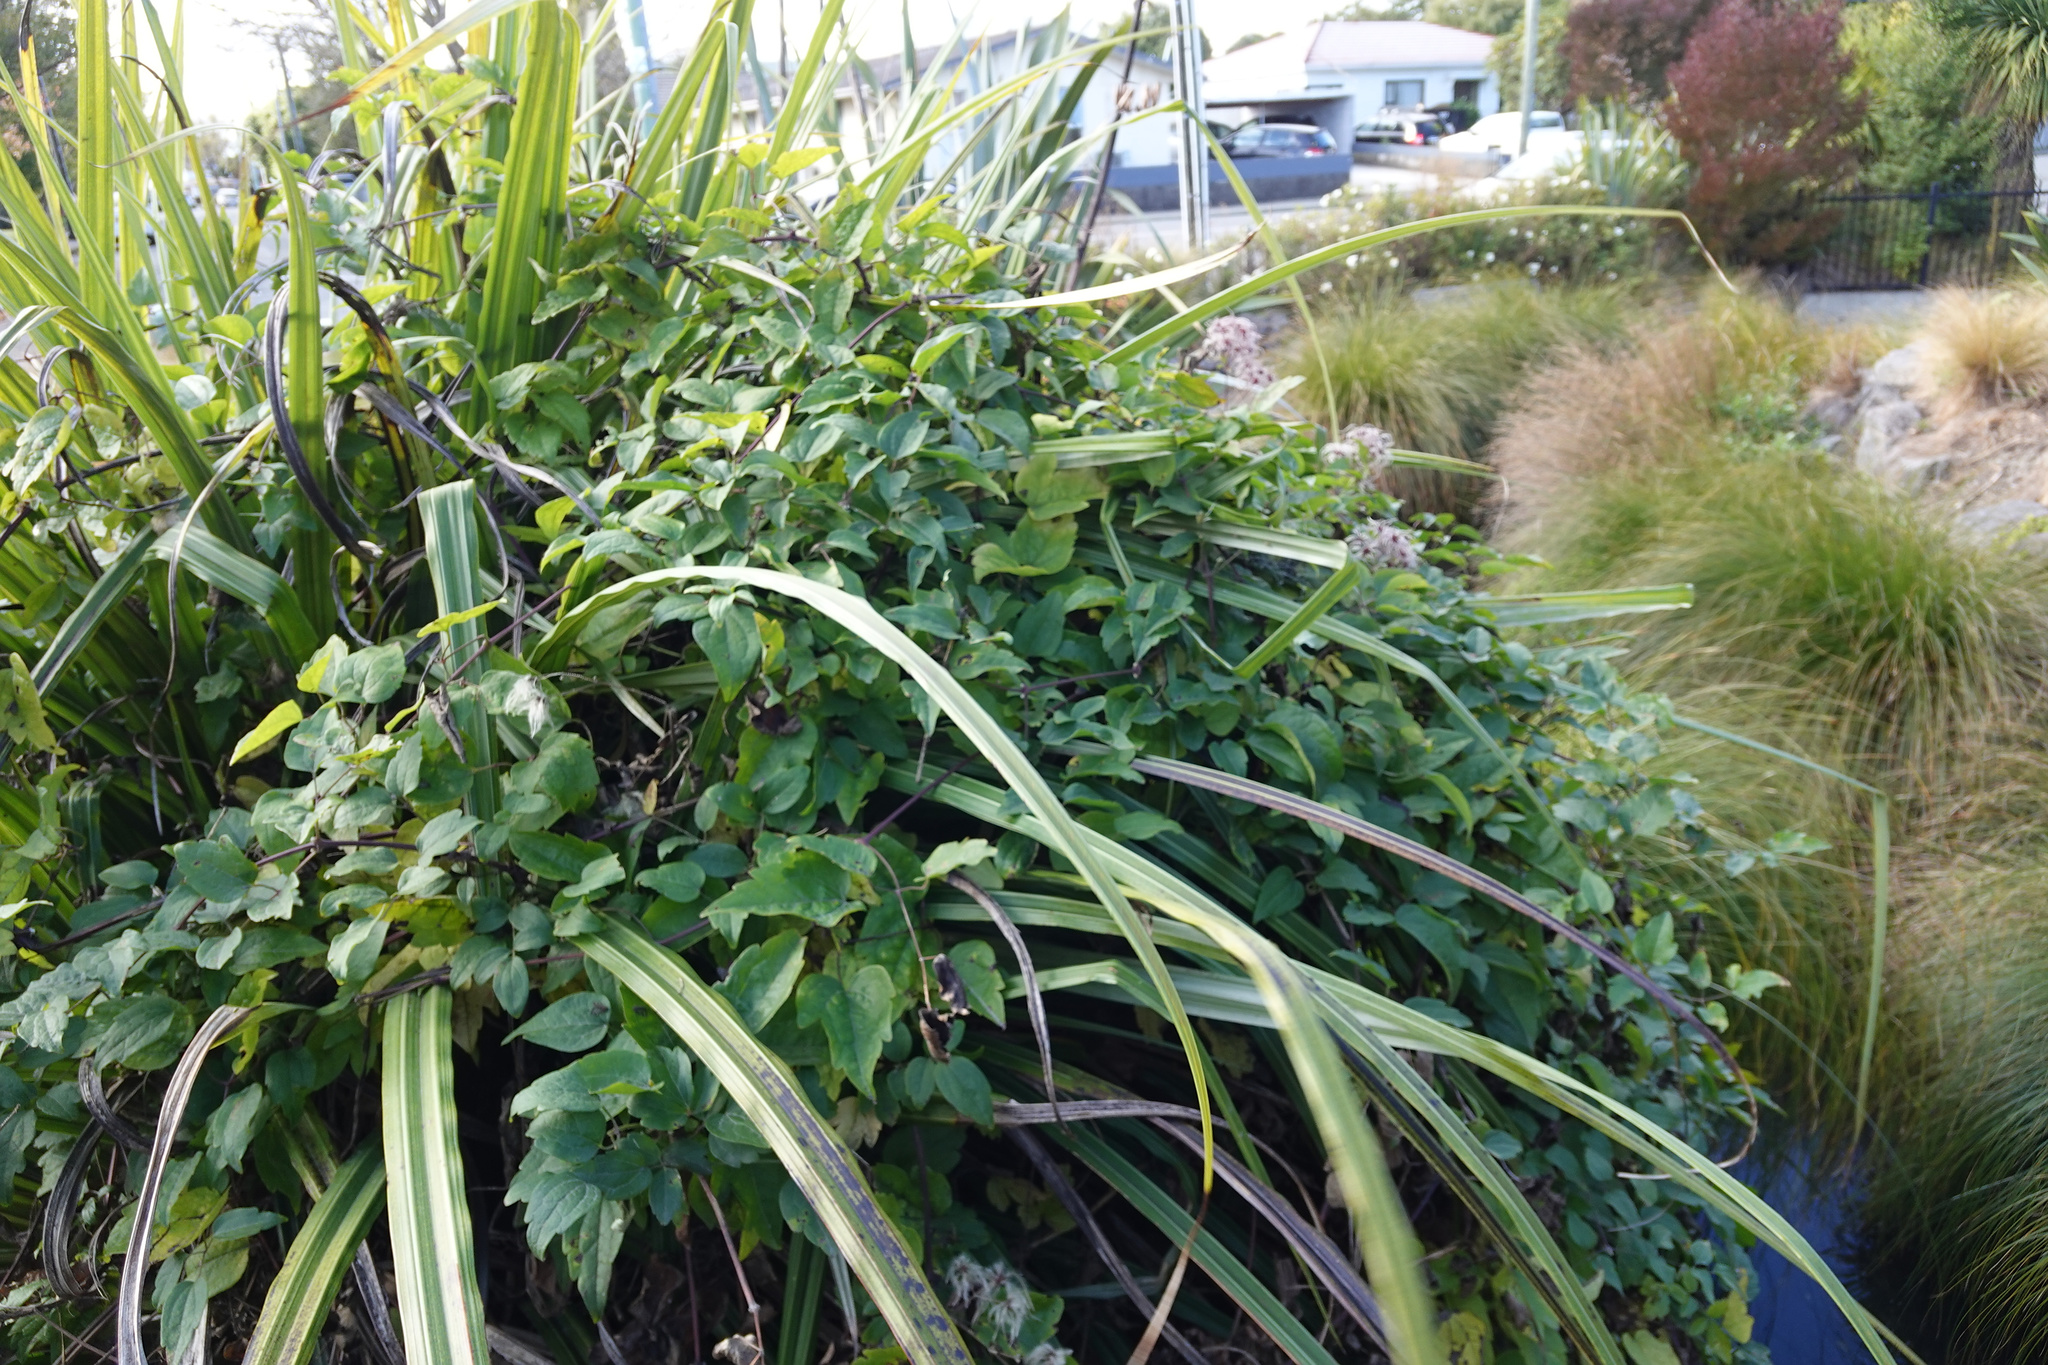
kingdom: Plantae
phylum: Tracheophyta
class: Magnoliopsida
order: Ranunculales
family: Ranunculaceae
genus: Clematis
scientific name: Clematis vitalba
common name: Evergreen clematis
